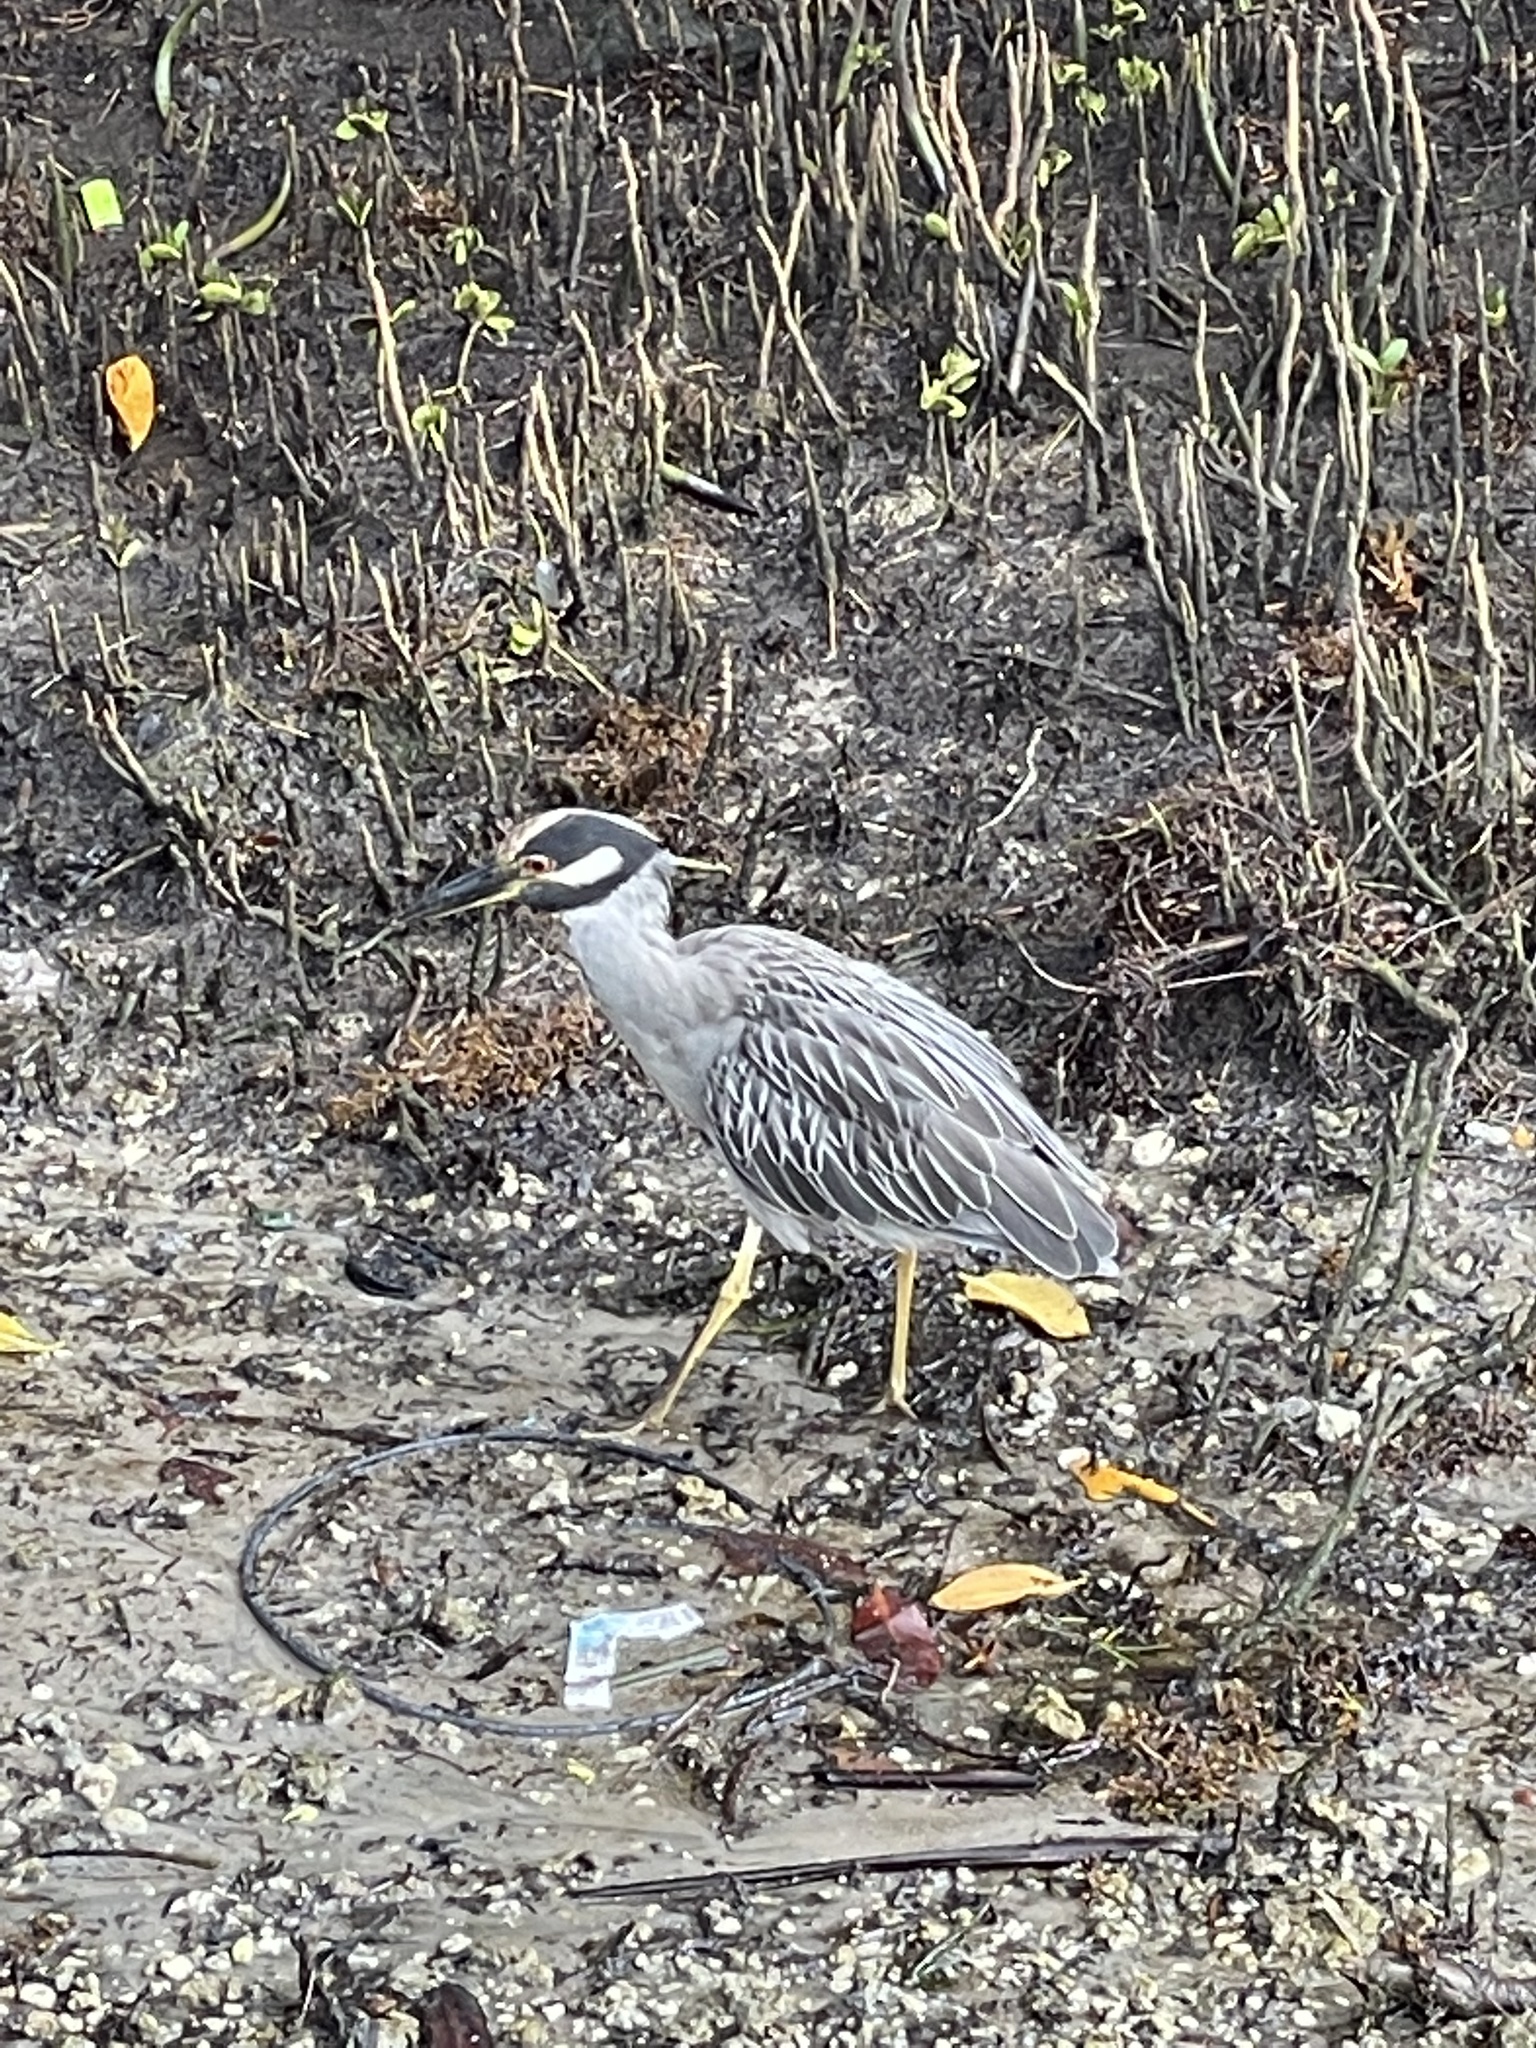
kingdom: Animalia
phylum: Chordata
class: Aves
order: Pelecaniformes
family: Ardeidae
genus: Nyctanassa
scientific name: Nyctanassa violacea
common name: Yellow-crowned night heron
